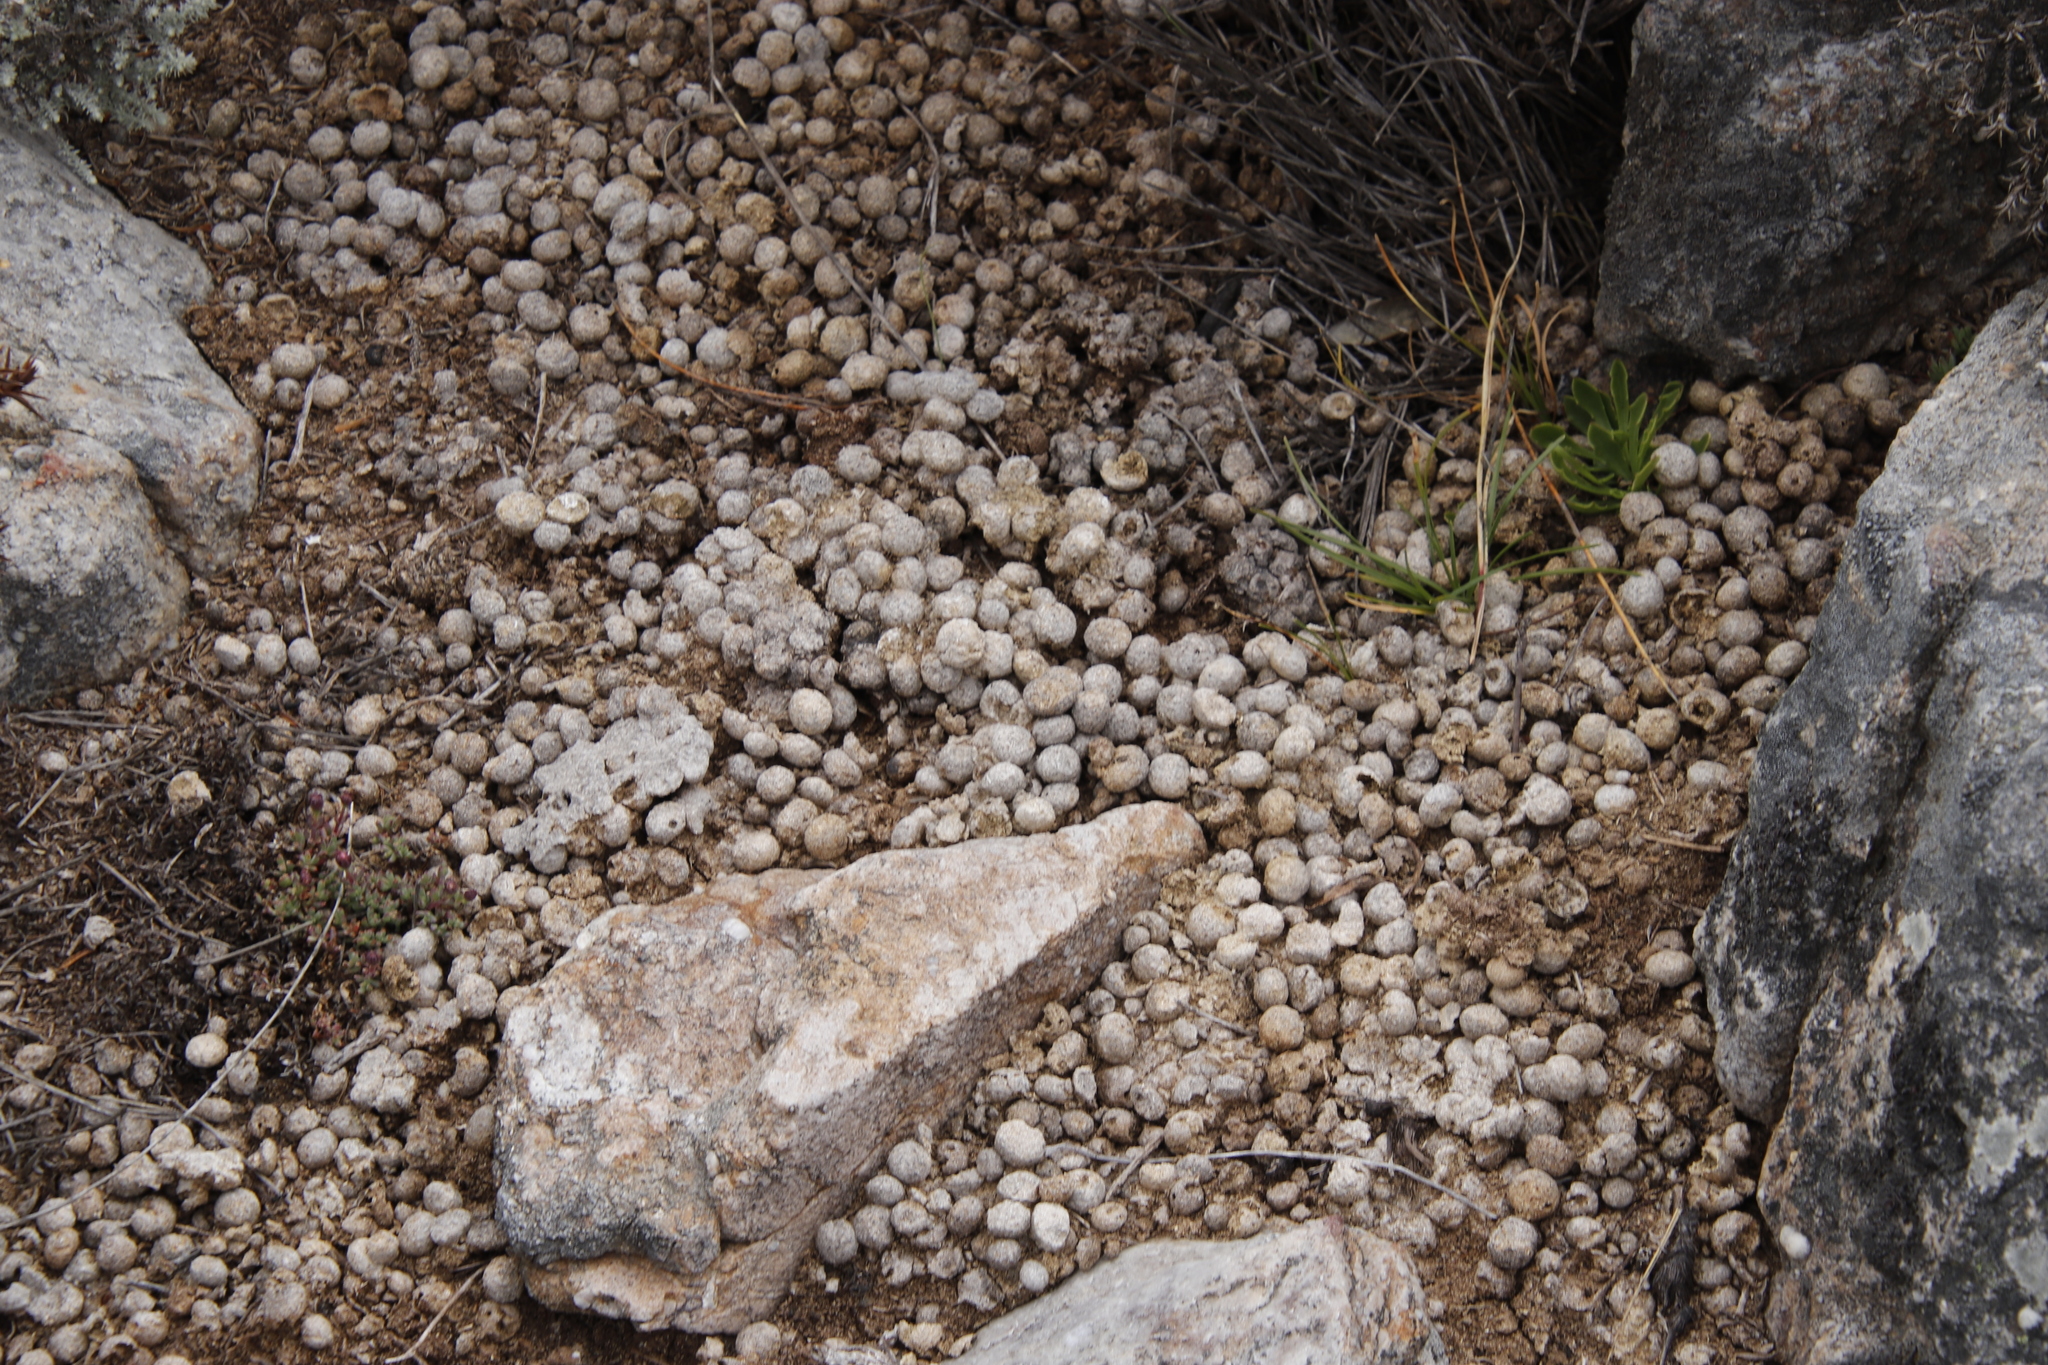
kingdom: Animalia
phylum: Chordata
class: Mammalia
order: Lagomorpha
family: Leporidae
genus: Pronolagus
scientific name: Pronolagus saundersiae
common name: Hewitt's red rock hare
